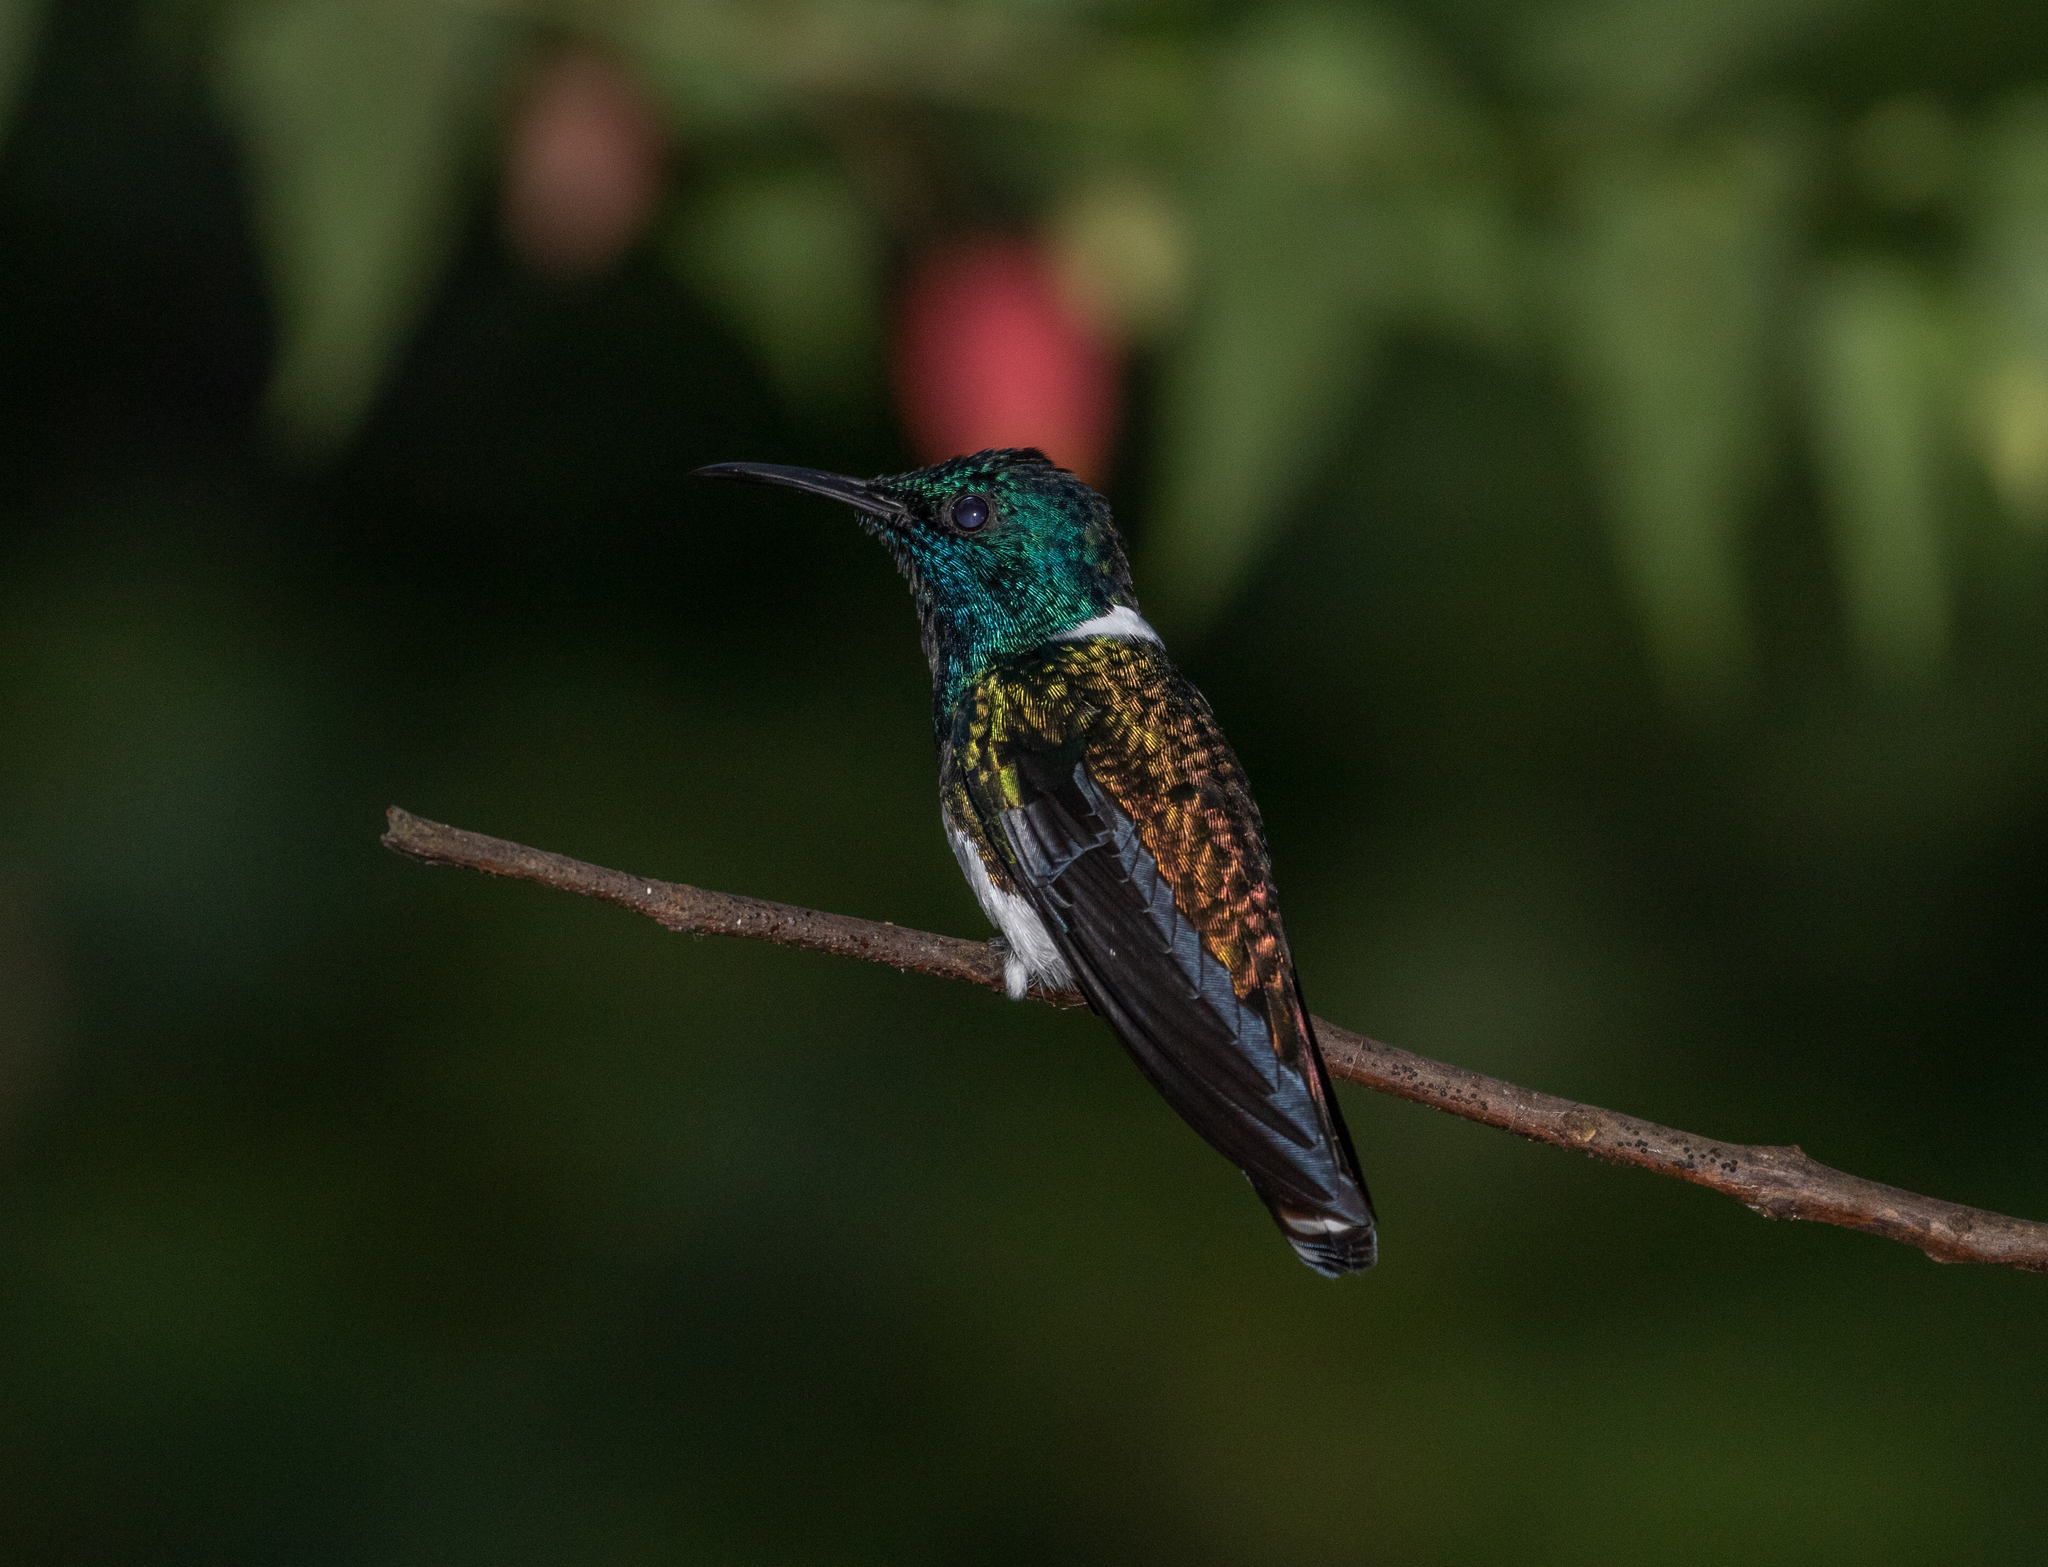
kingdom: Animalia
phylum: Chordata
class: Aves
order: Apodiformes
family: Trochilidae
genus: Florisuga
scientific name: Florisuga mellivora
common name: White-necked jacobin
